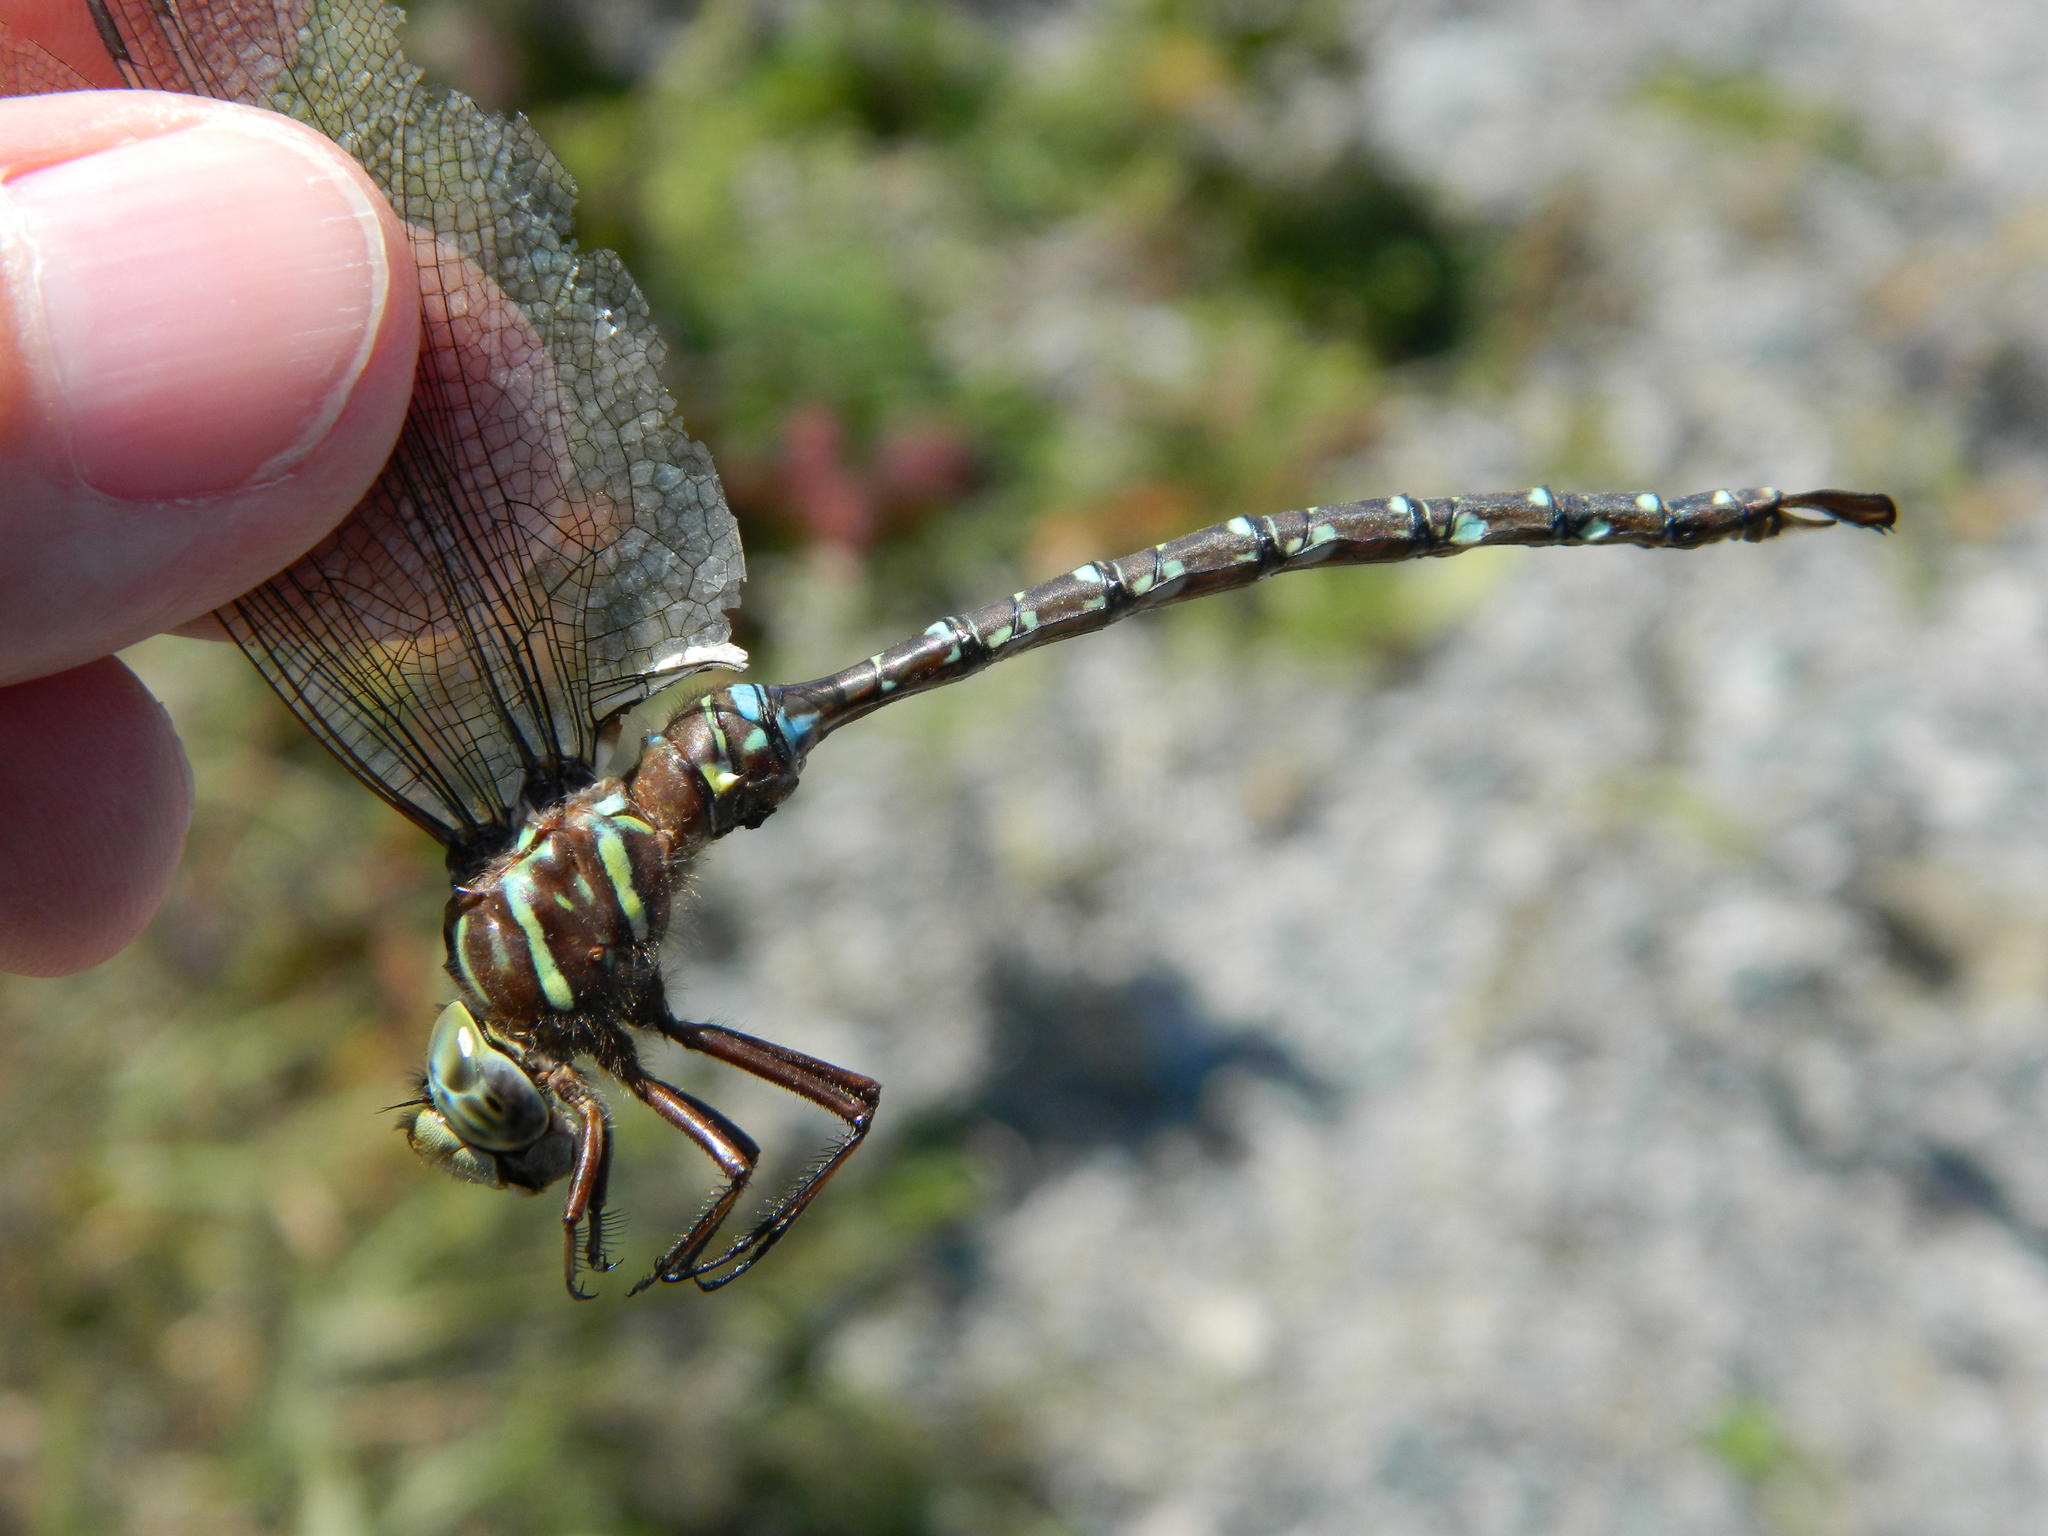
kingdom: Animalia
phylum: Arthropoda
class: Insecta
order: Odonata
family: Aeshnidae
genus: Aeshna
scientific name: Aeshna umbrosa
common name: Shadow darner
